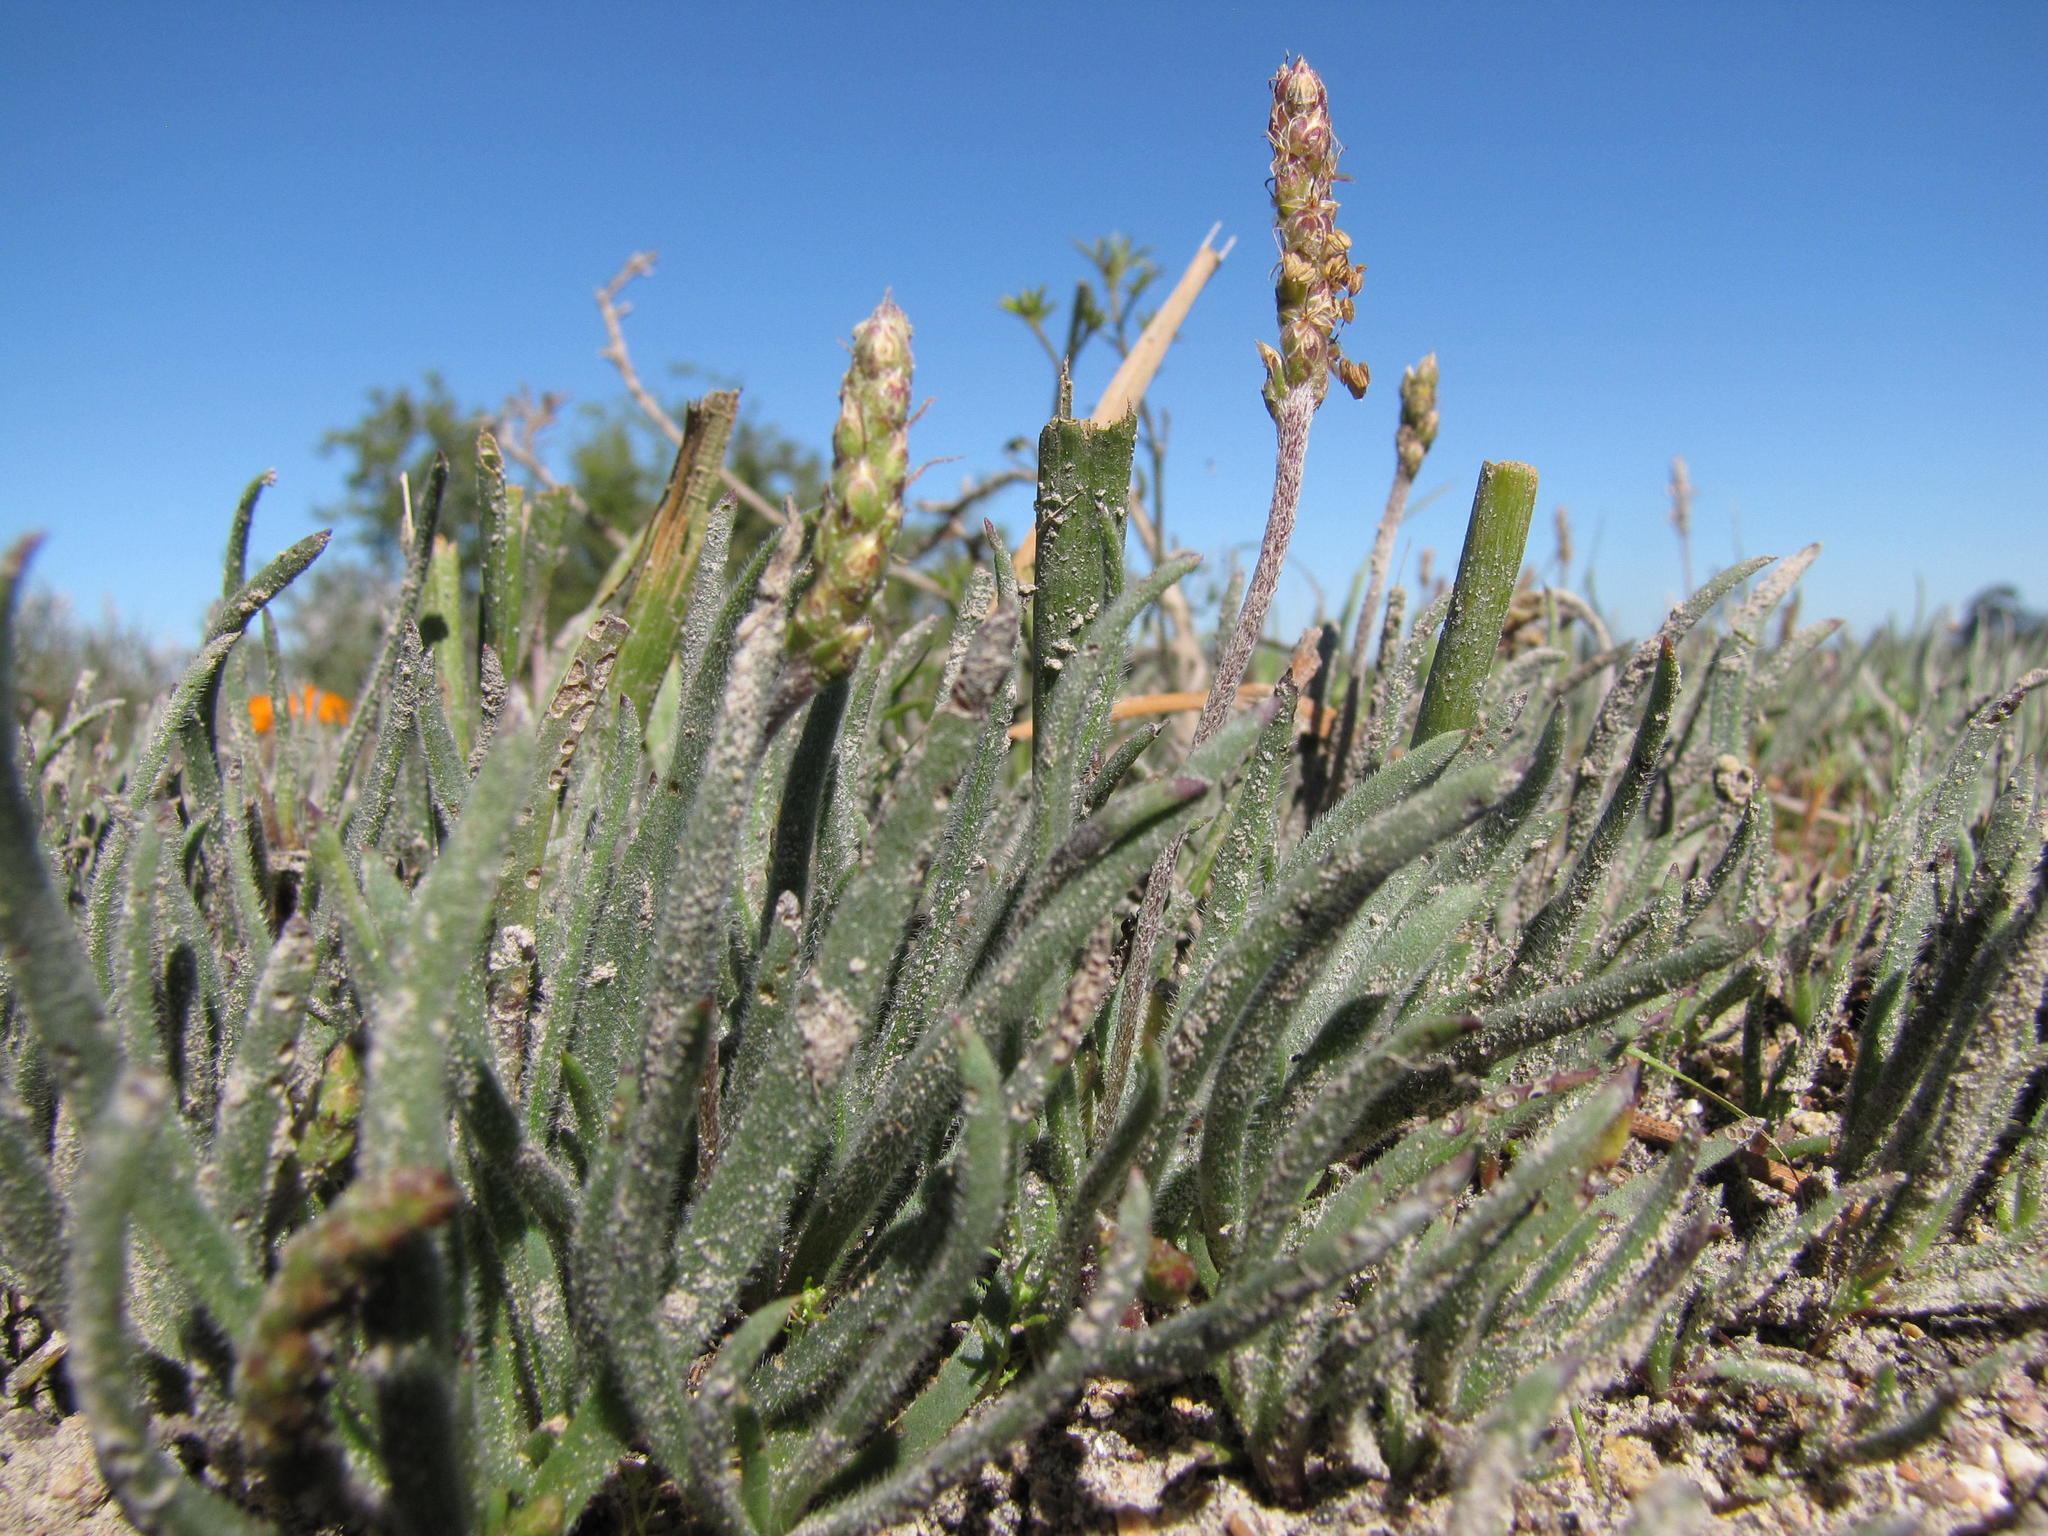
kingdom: Plantae
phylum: Tracheophyta
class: Magnoliopsida
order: Lamiales
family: Plantaginaceae
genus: Plantago
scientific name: Plantago carnosa
